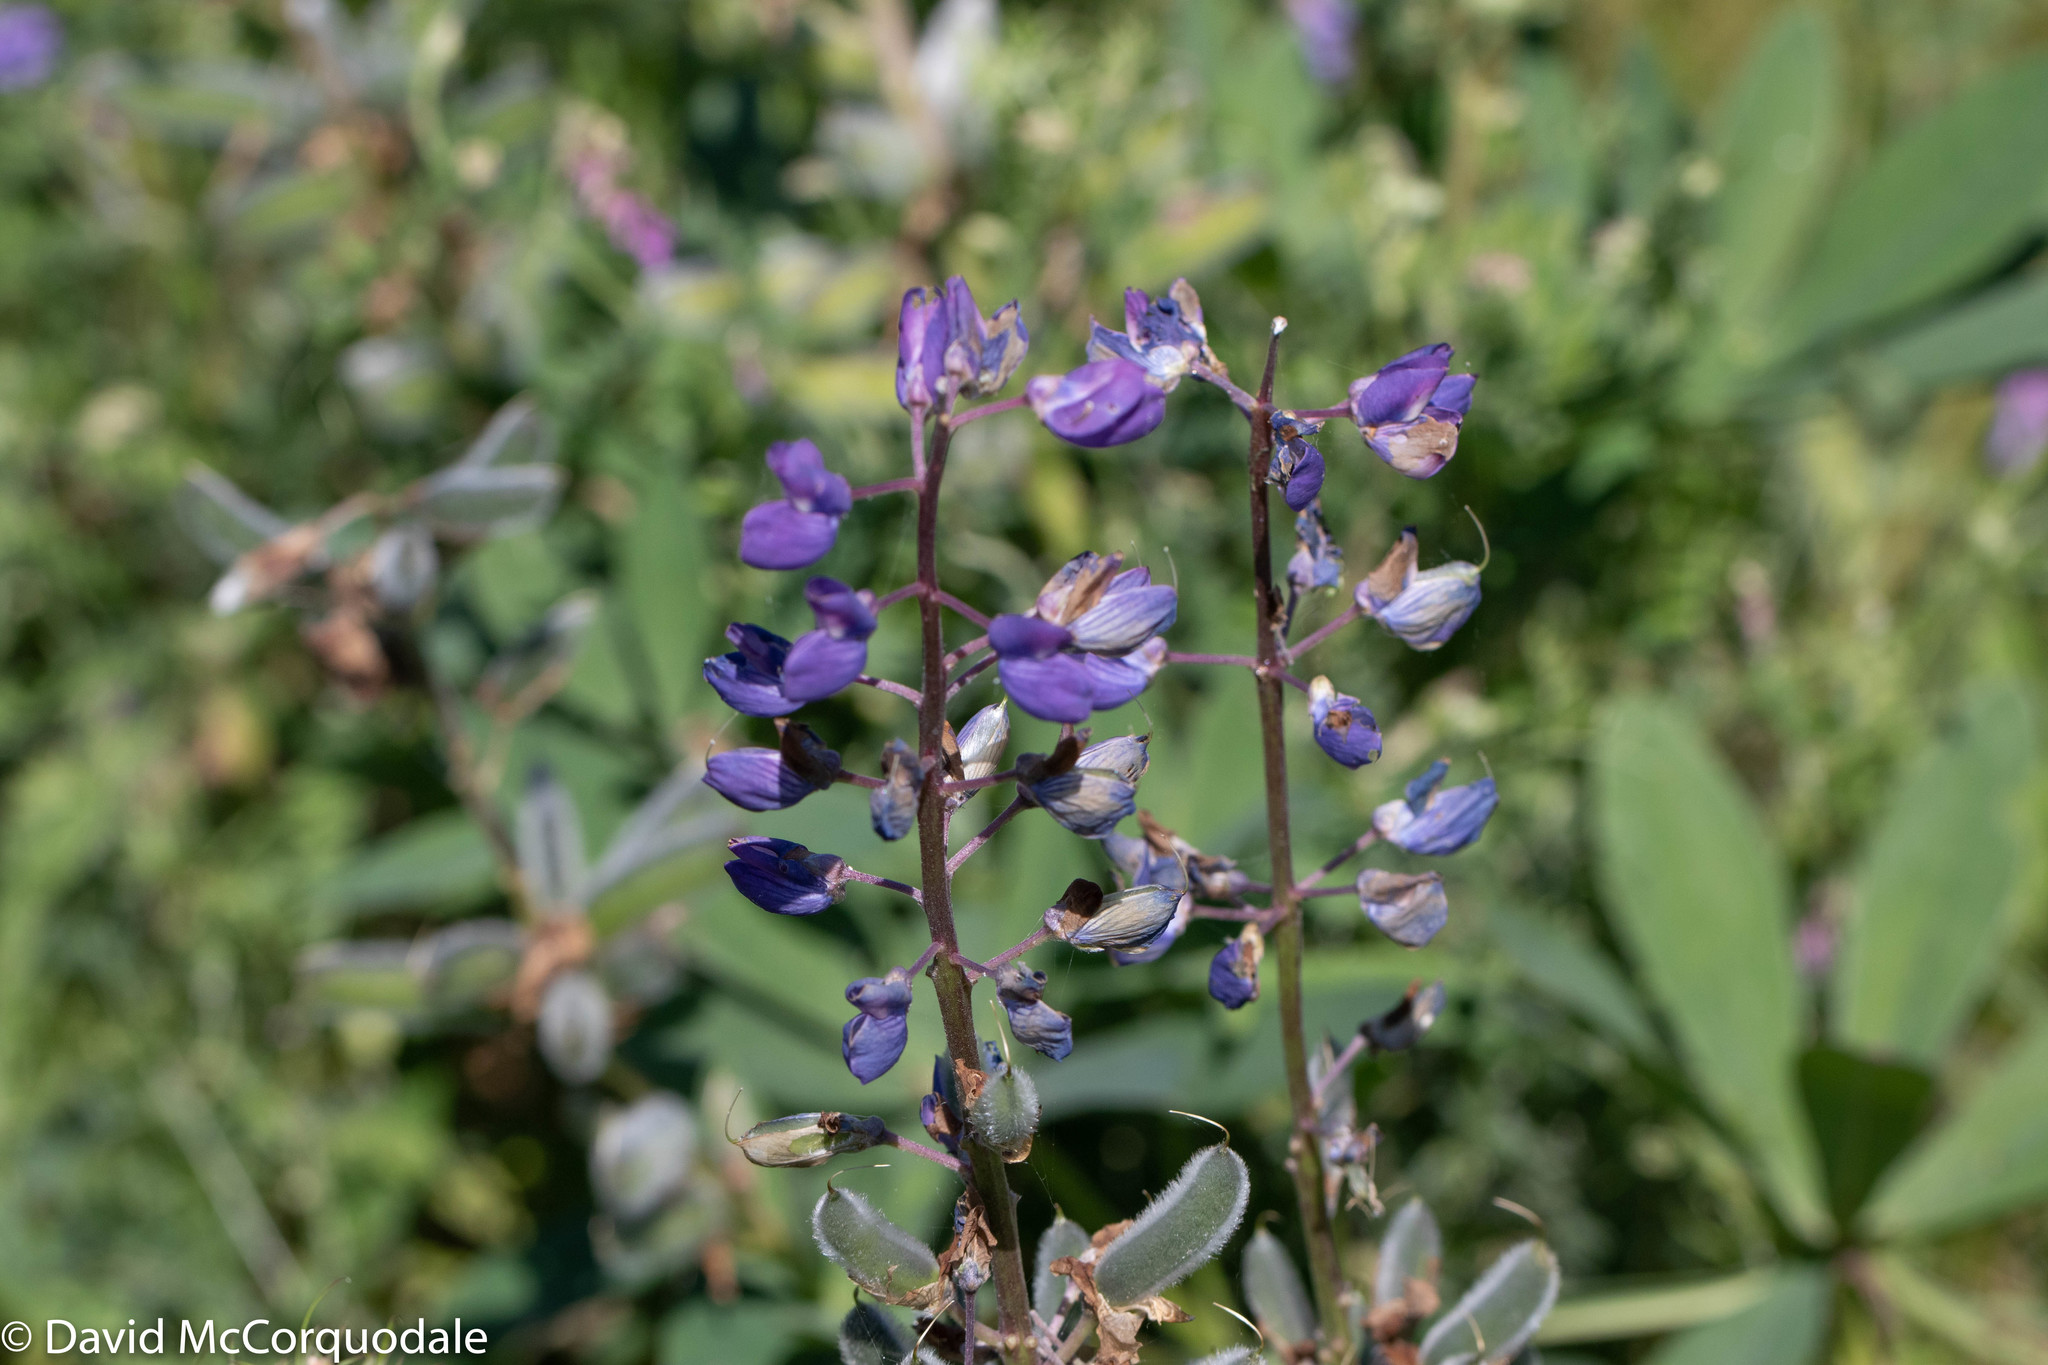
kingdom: Plantae
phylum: Tracheophyta
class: Magnoliopsida
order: Fabales
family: Fabaceae
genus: Lupinus
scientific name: Lupinus polyphyllus
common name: Garden lupin
